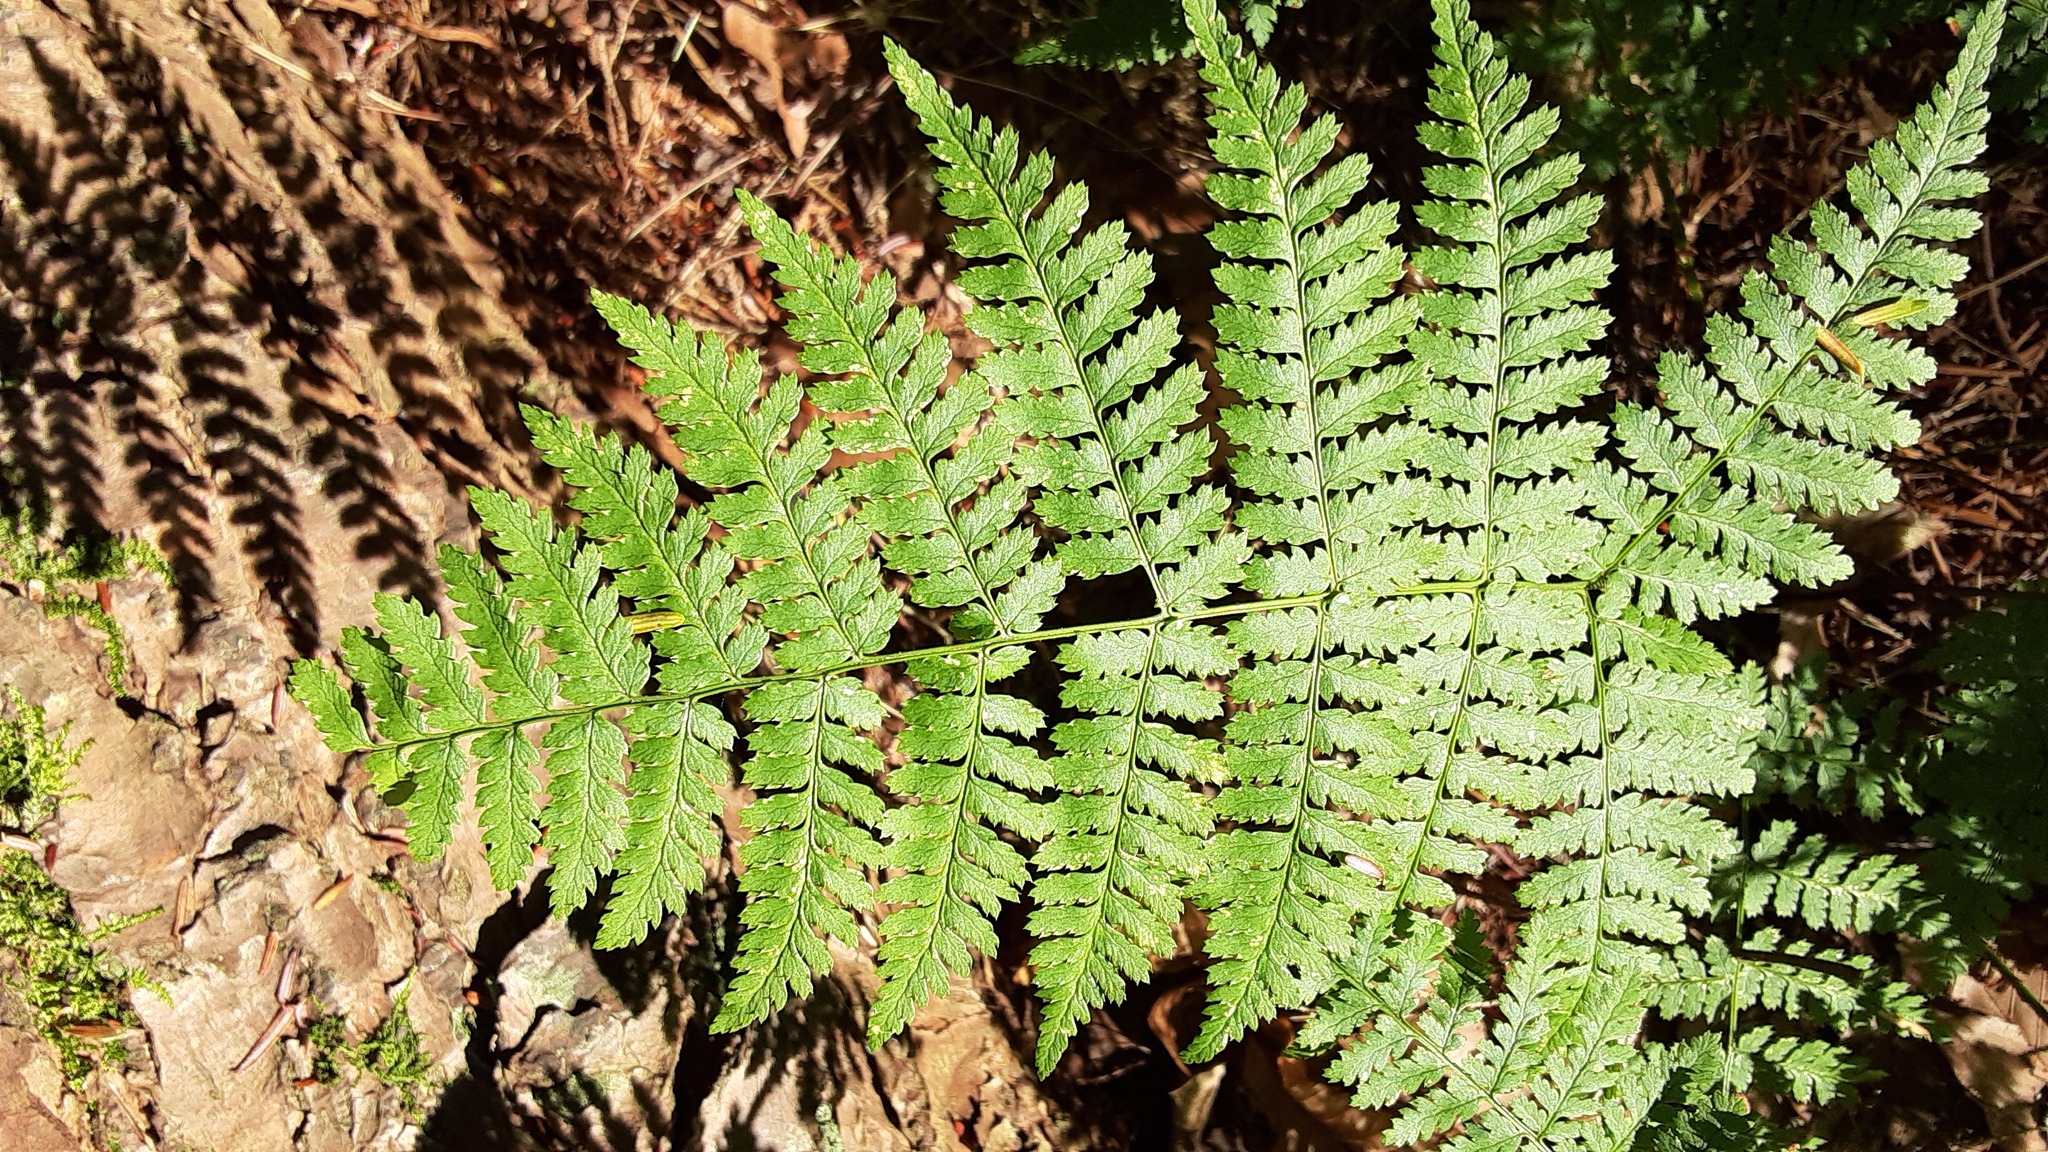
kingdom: Plantae
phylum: Tracheophyta
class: Polypodiopsida
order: Polypodiales
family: Dryopteridaceae
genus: Dryopteris
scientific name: Dryopteris intermedia
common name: Evergreen wood fern
